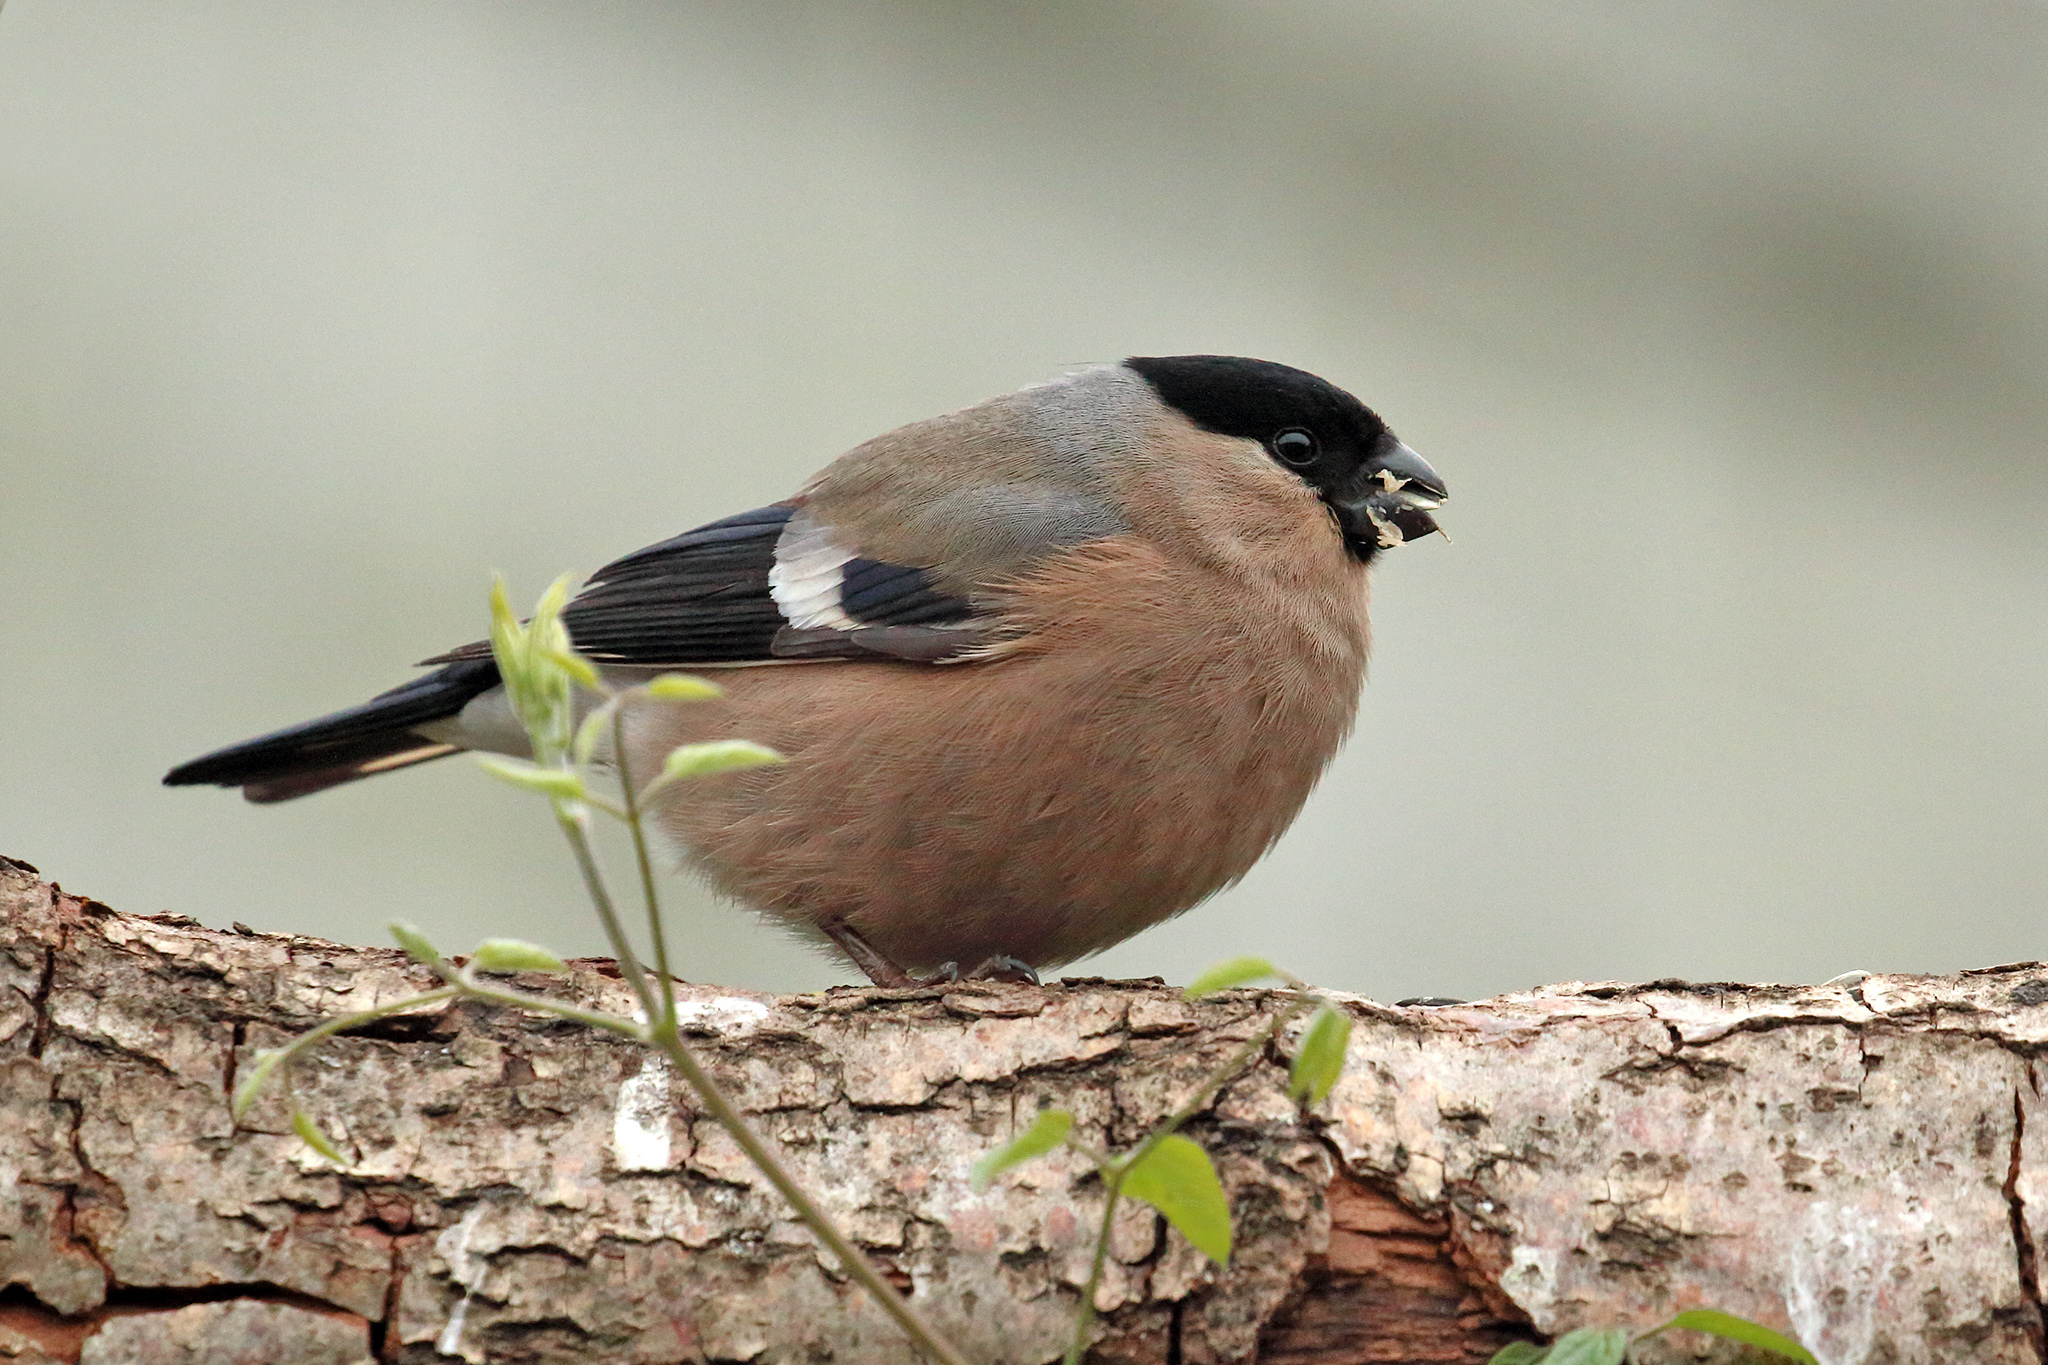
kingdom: Animalia
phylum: Chordata
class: Aves
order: Passeriformes
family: Fringillidae
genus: Pyrrhula
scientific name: Pyrrhula pyrrhula
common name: Eurasian bullfinch
